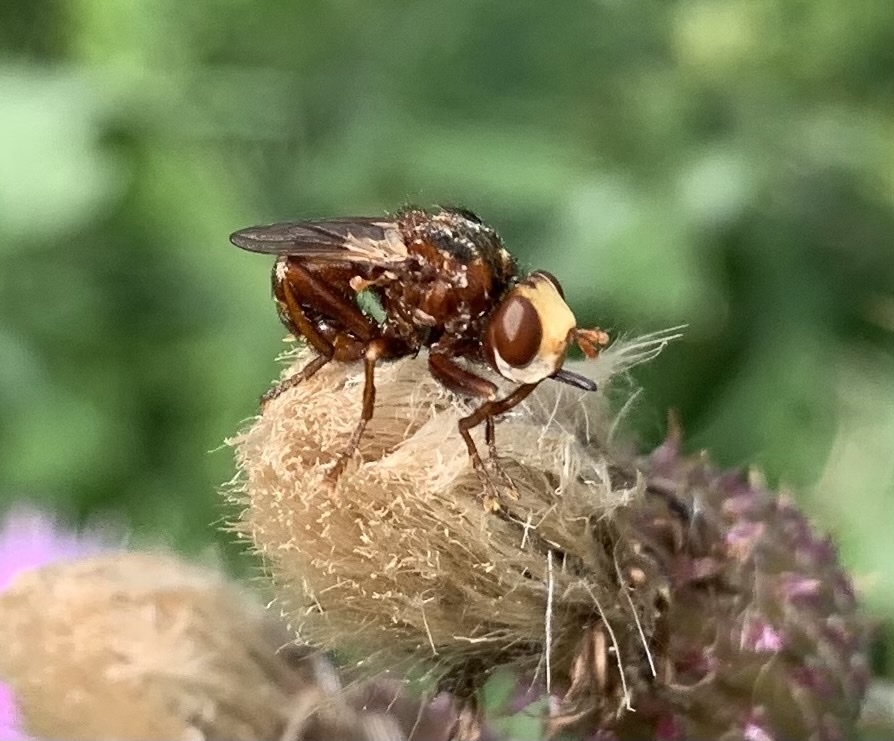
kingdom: Animalia
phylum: Arthropoda
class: Insecta
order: Diptera
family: Conopidae
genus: Sicus
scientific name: Sicus ferrugineus
